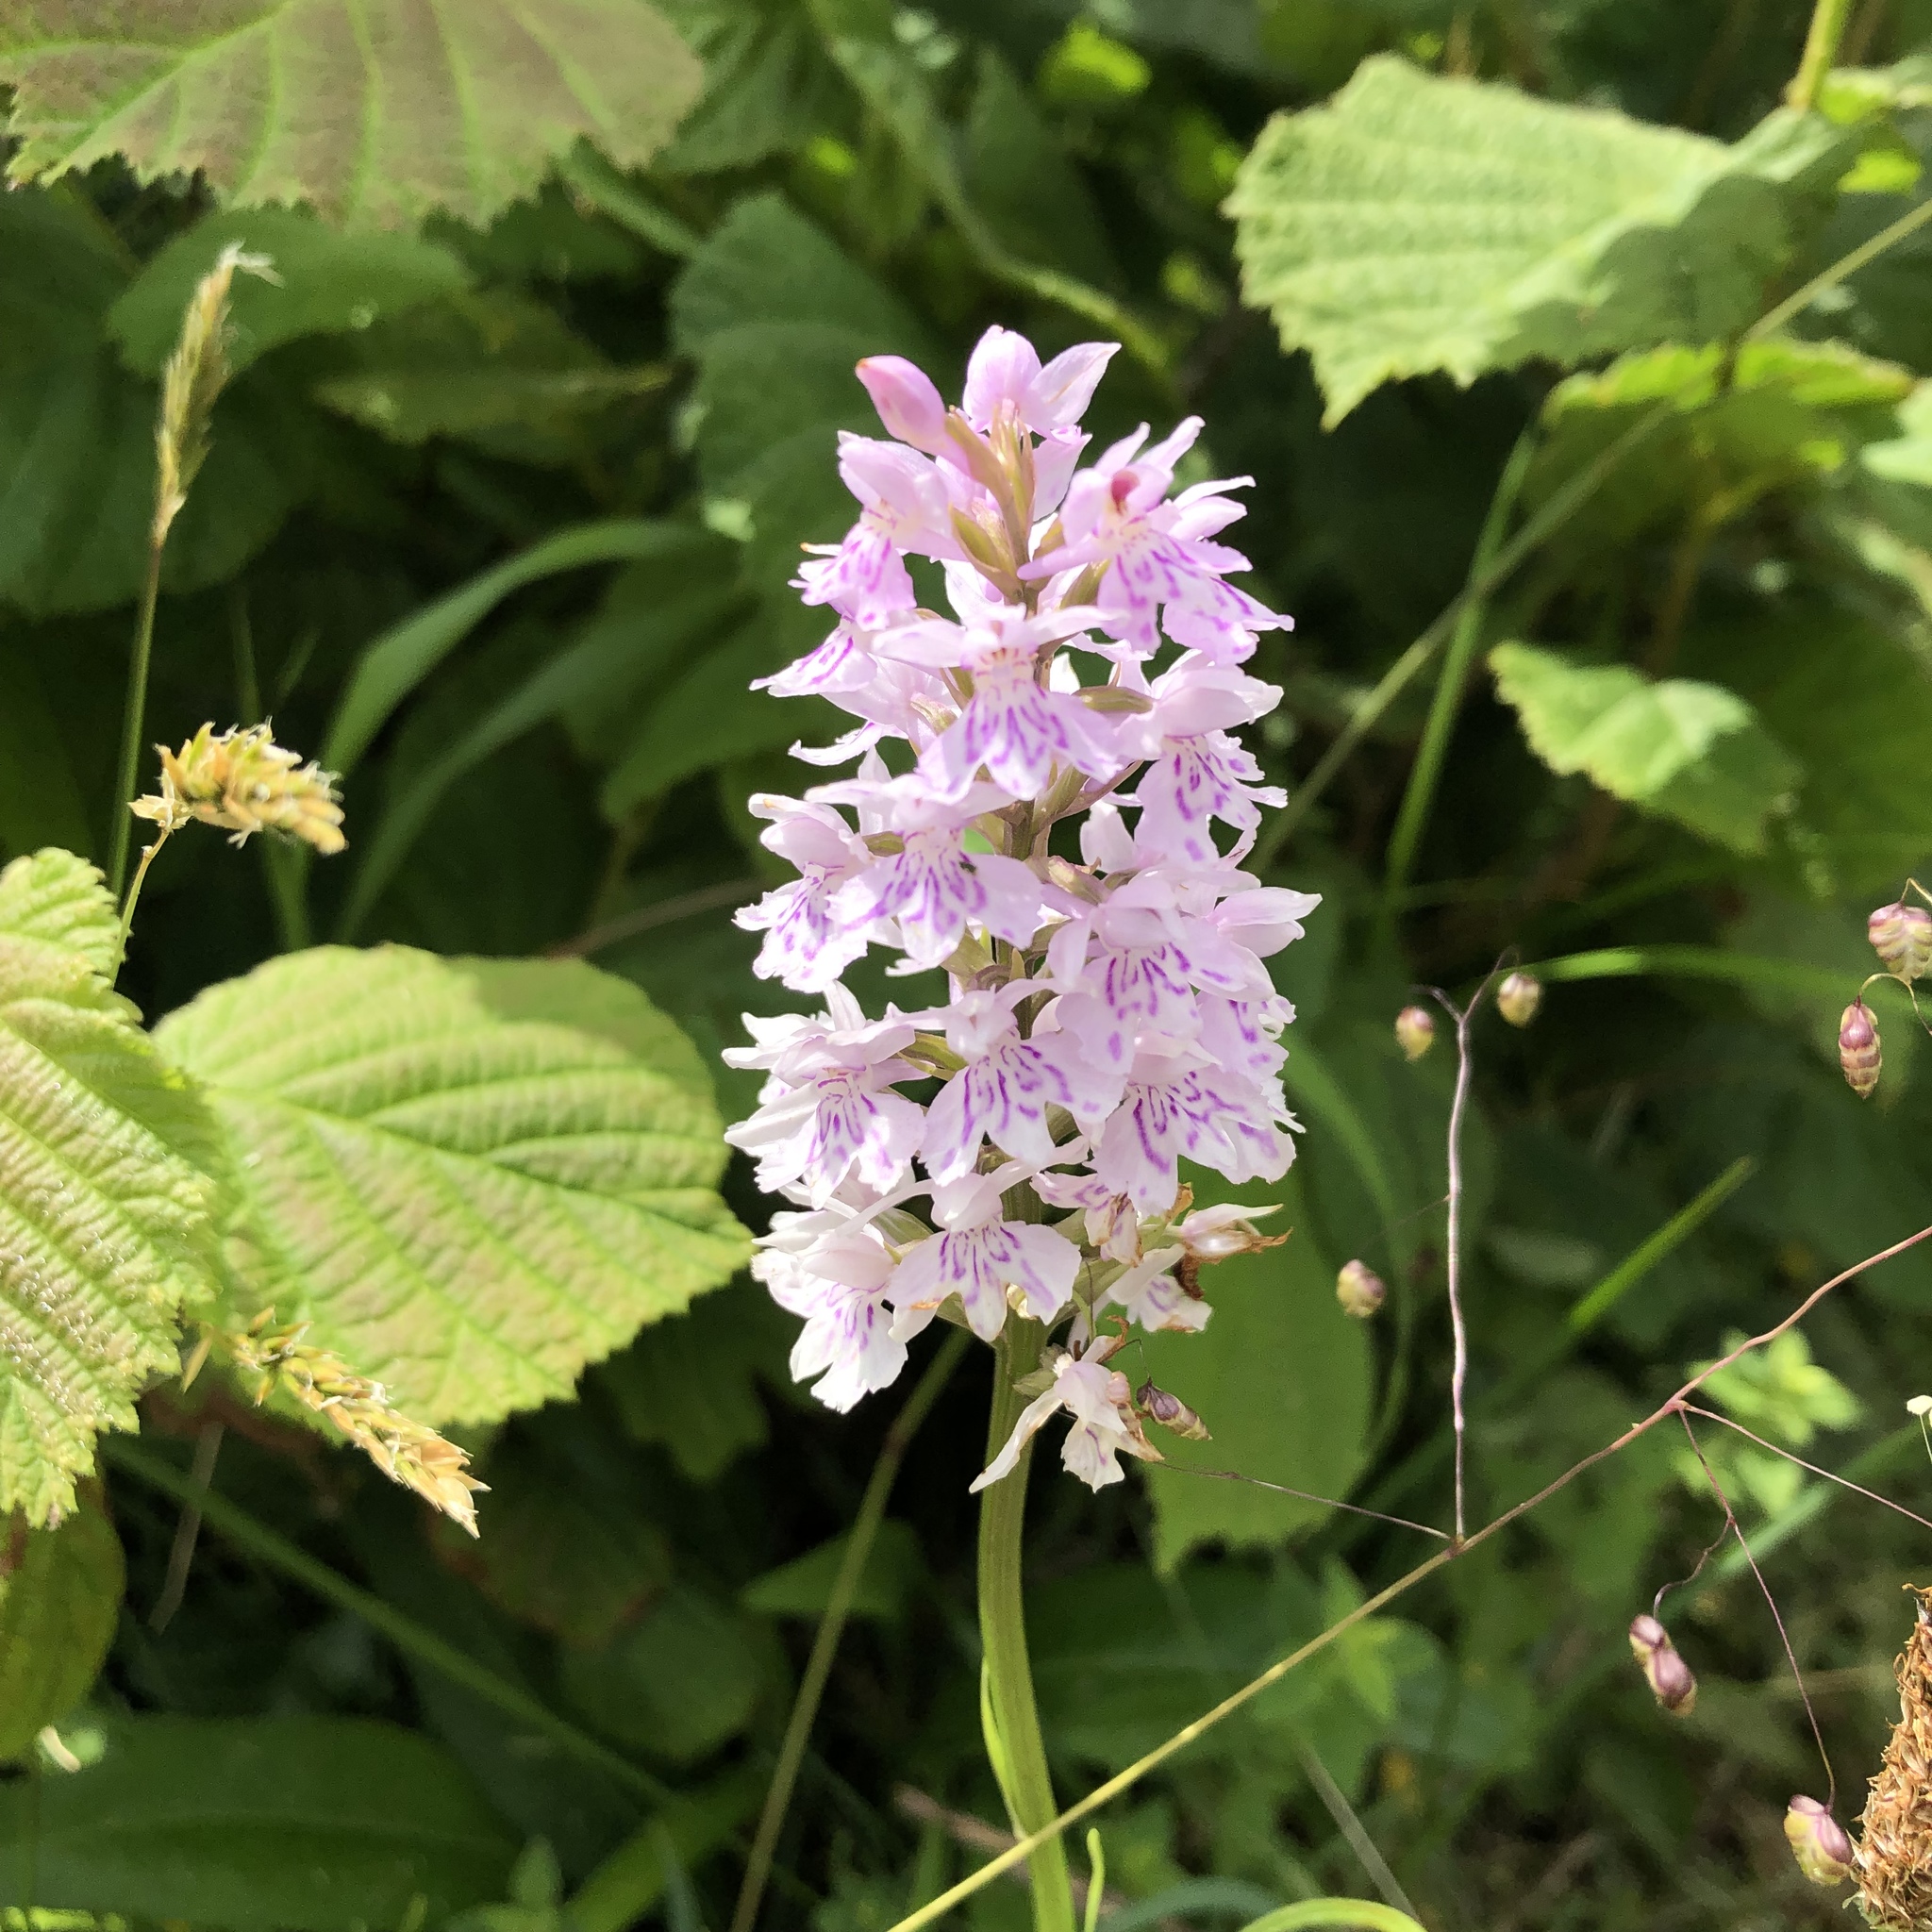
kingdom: Plantae
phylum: Tracheophyta
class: Liliopsida
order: Asparagales
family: Orchidaceae
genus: Dactylorhiza
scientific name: Dactylorhiza maculata
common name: Heath spotted-orchid
